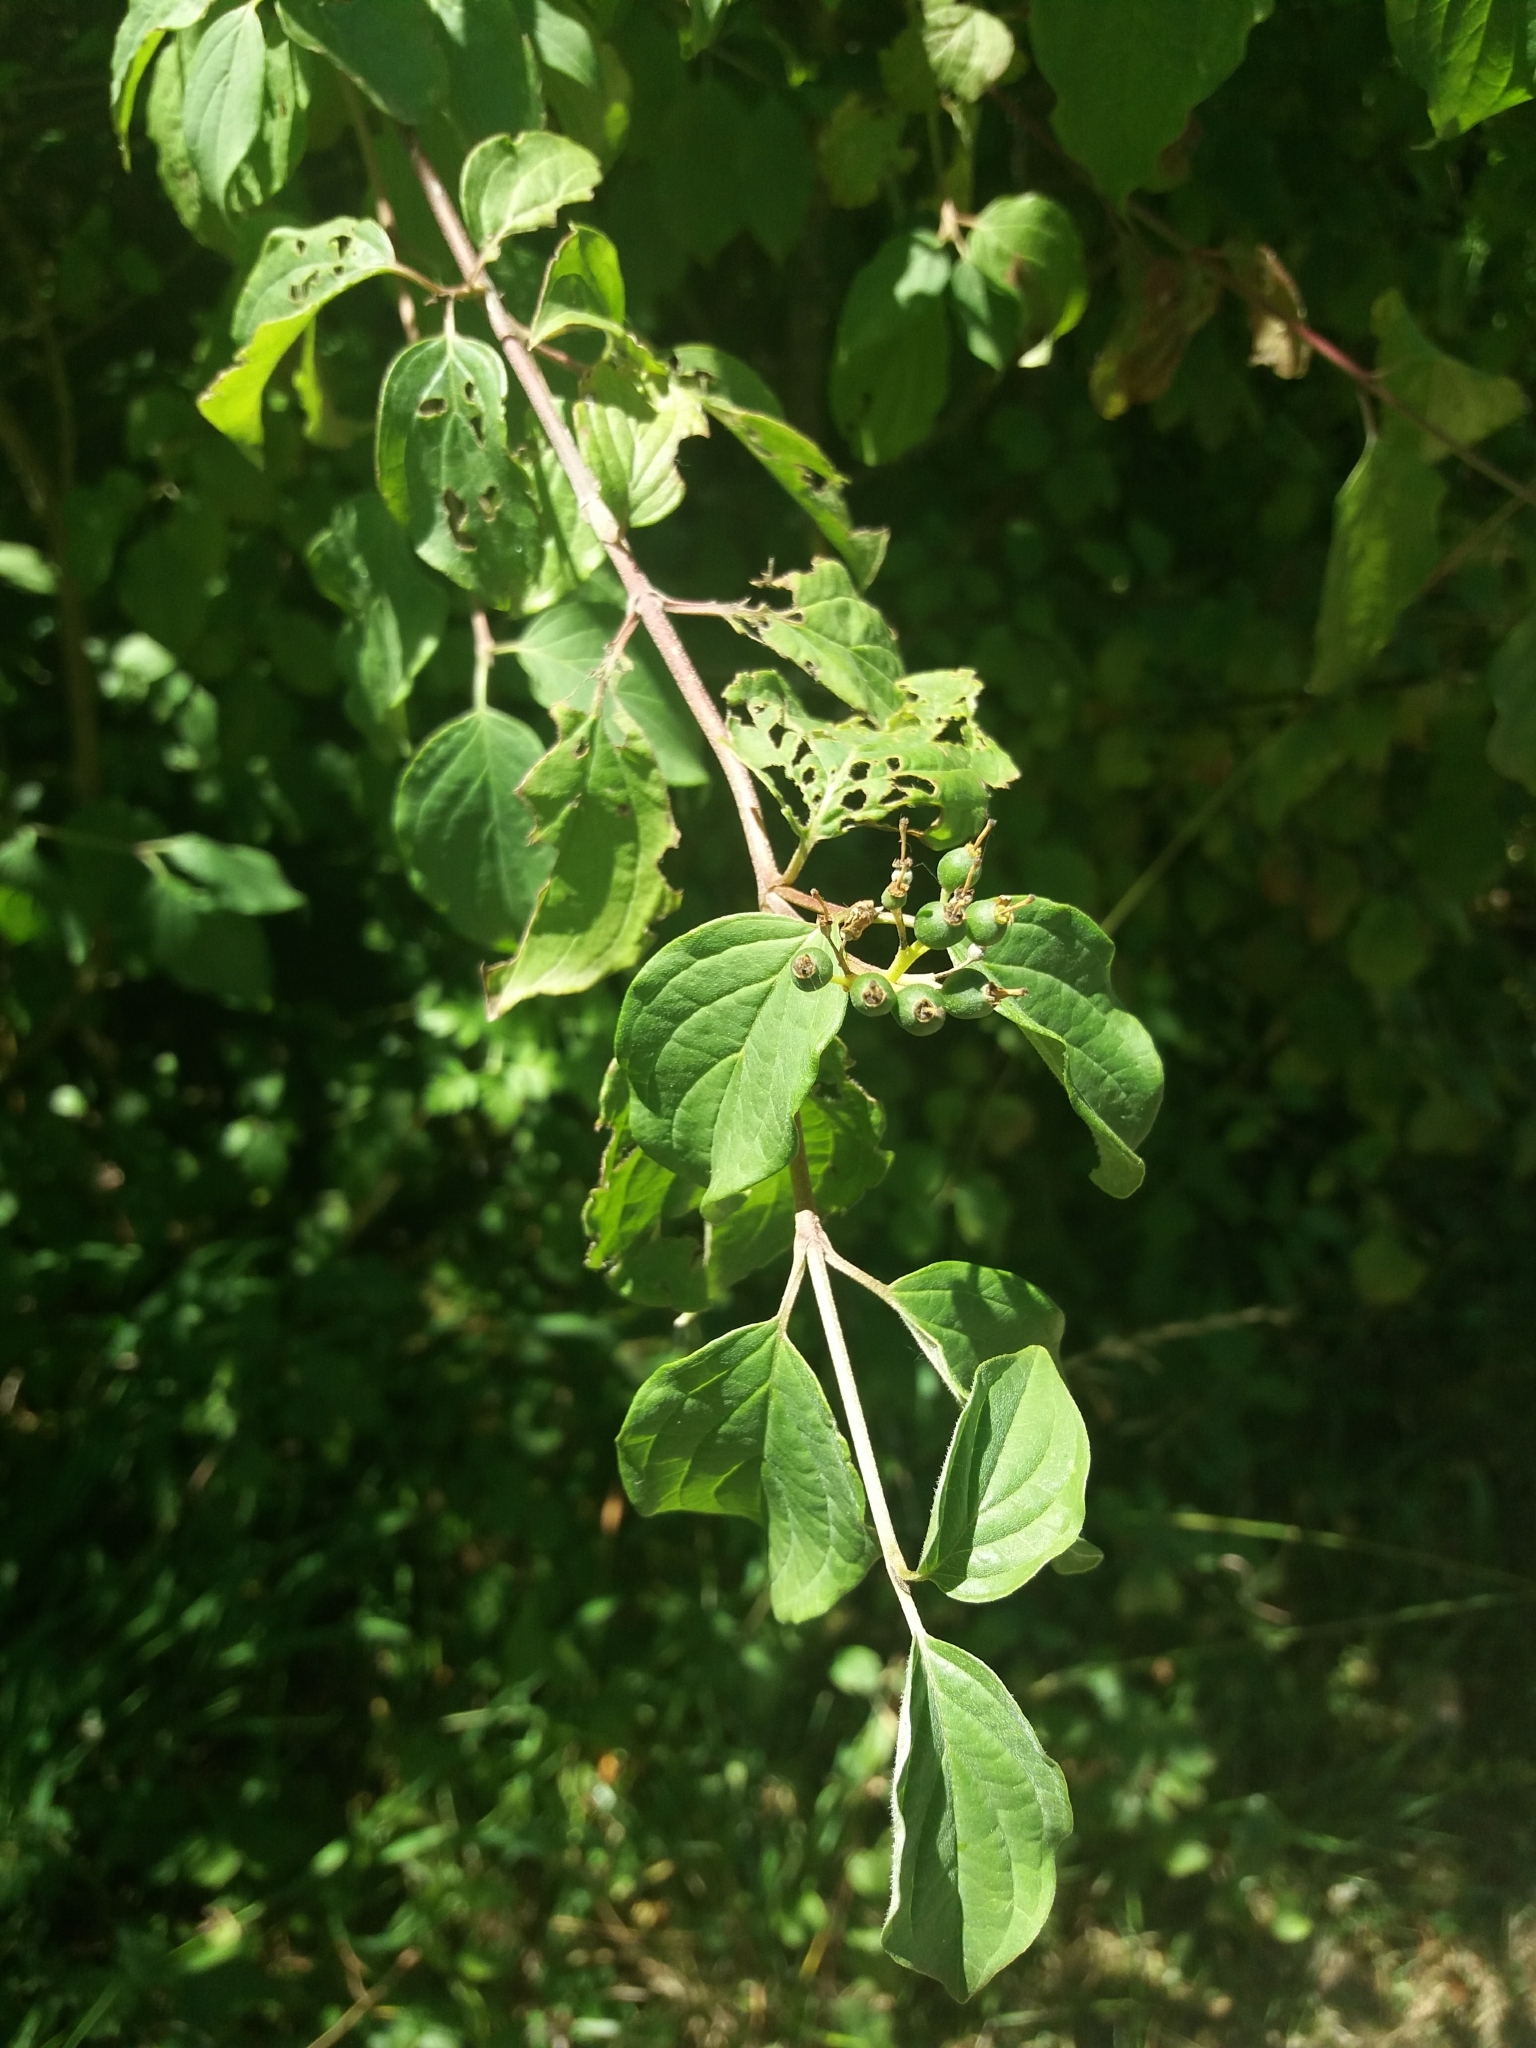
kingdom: Plantae
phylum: Tracheophyta
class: Magnoliopsida
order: Cornales
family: Cornaceae
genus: Cornus
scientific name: Cornus sanguinea
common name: Dogwood
